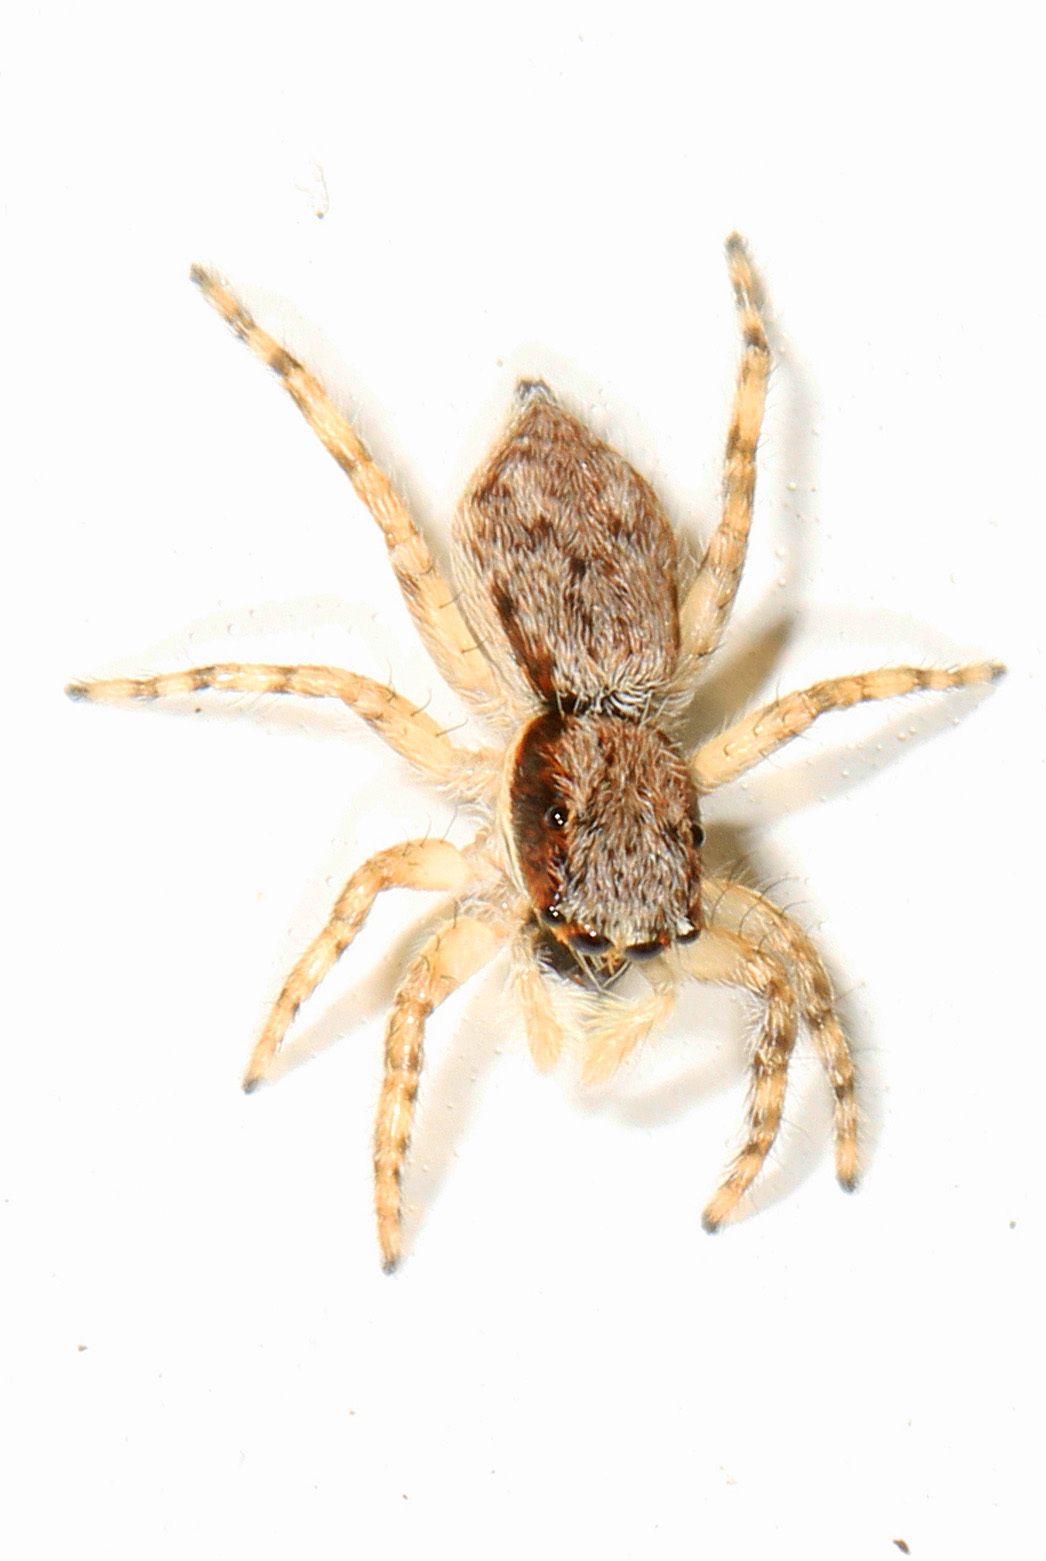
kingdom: Animalia
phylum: Arthropoda
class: Arachnida
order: Araneae
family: Salticidae
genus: Menemerus
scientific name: Menemerus bivittatus
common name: Gray wall jumper
